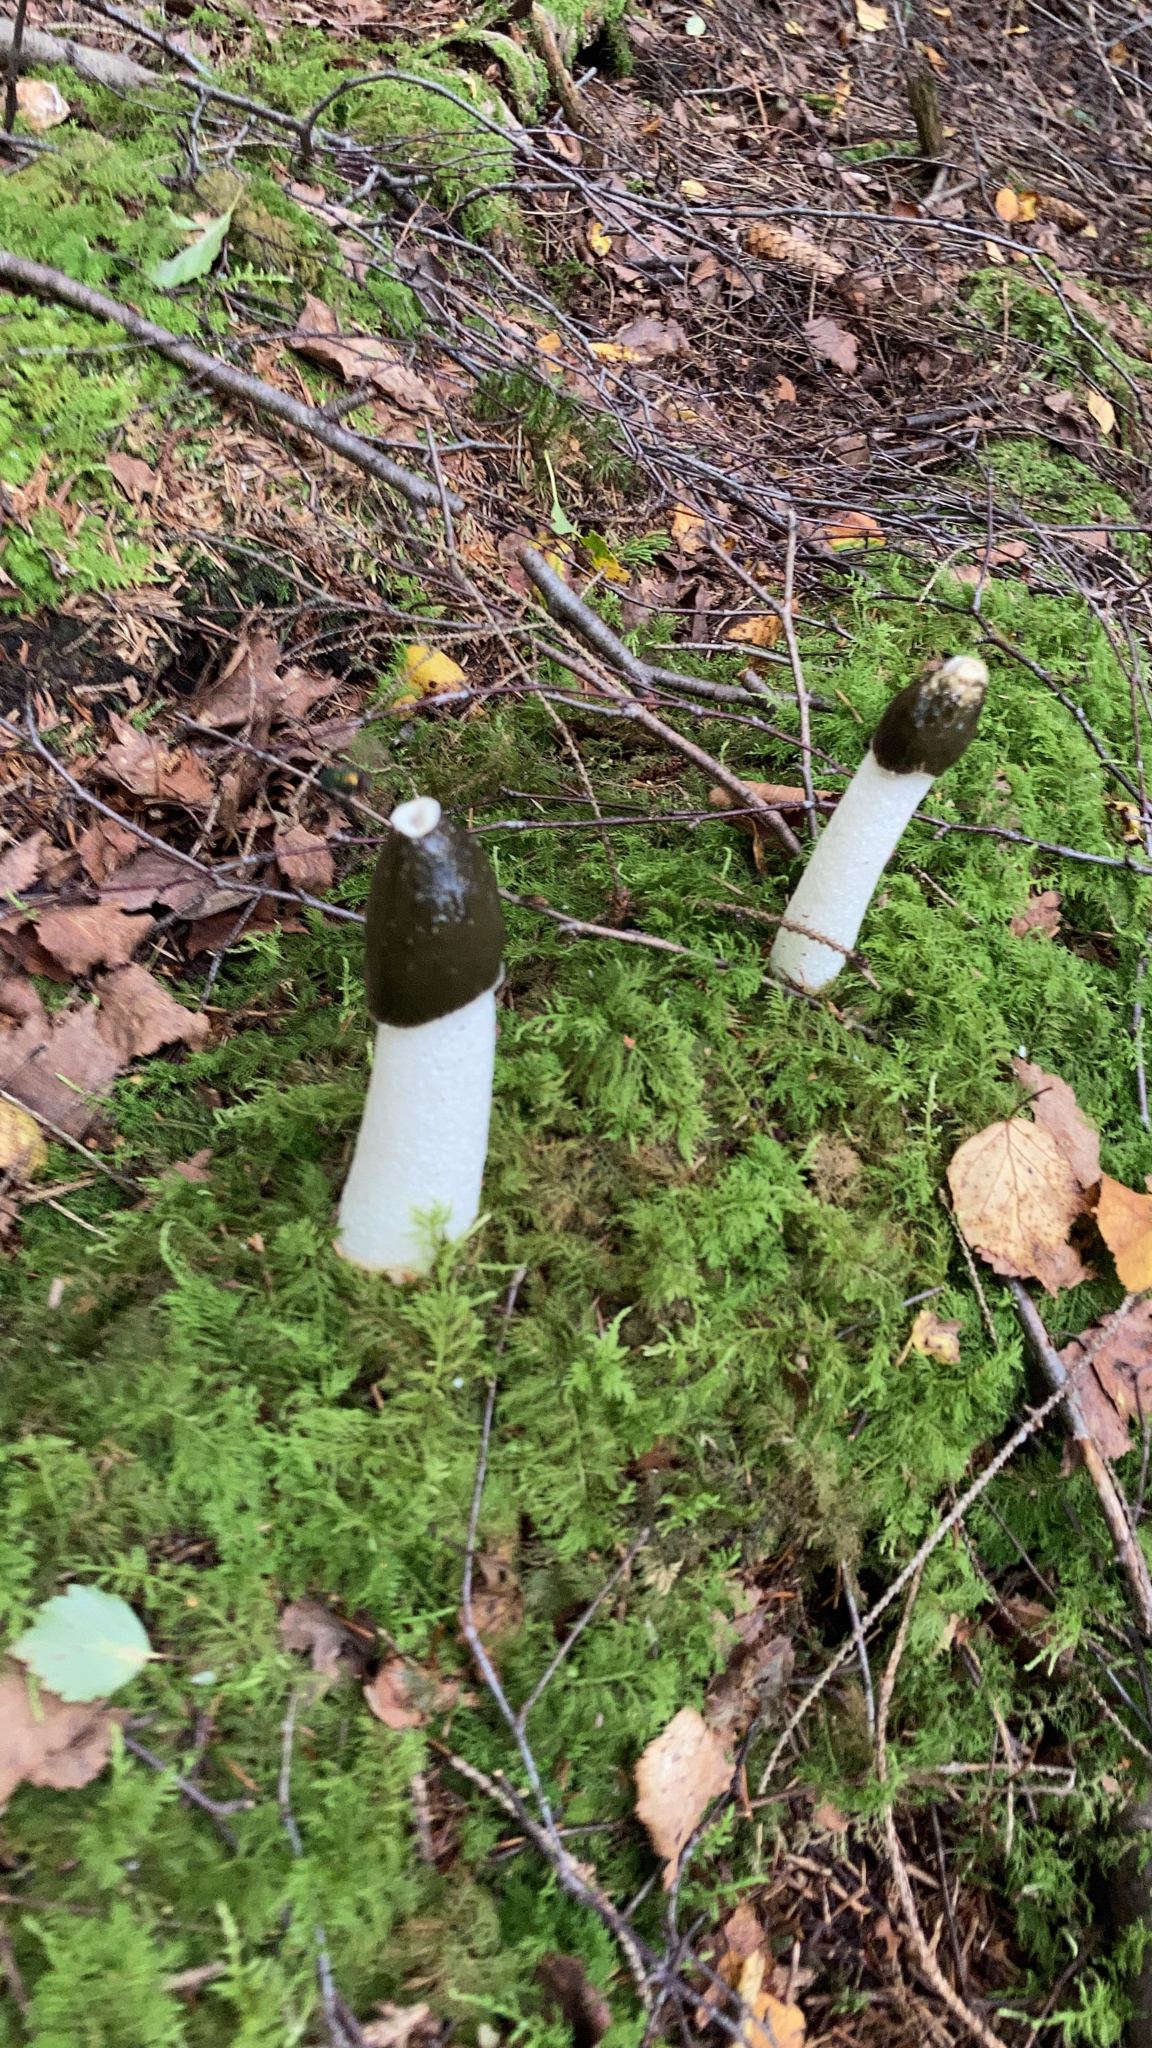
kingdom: Fungi
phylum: Basidiomycota
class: Agaricomycetes
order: Phallales
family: Phallaceae
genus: Phallus
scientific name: Phallus impudicus
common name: Common stinkhorn
